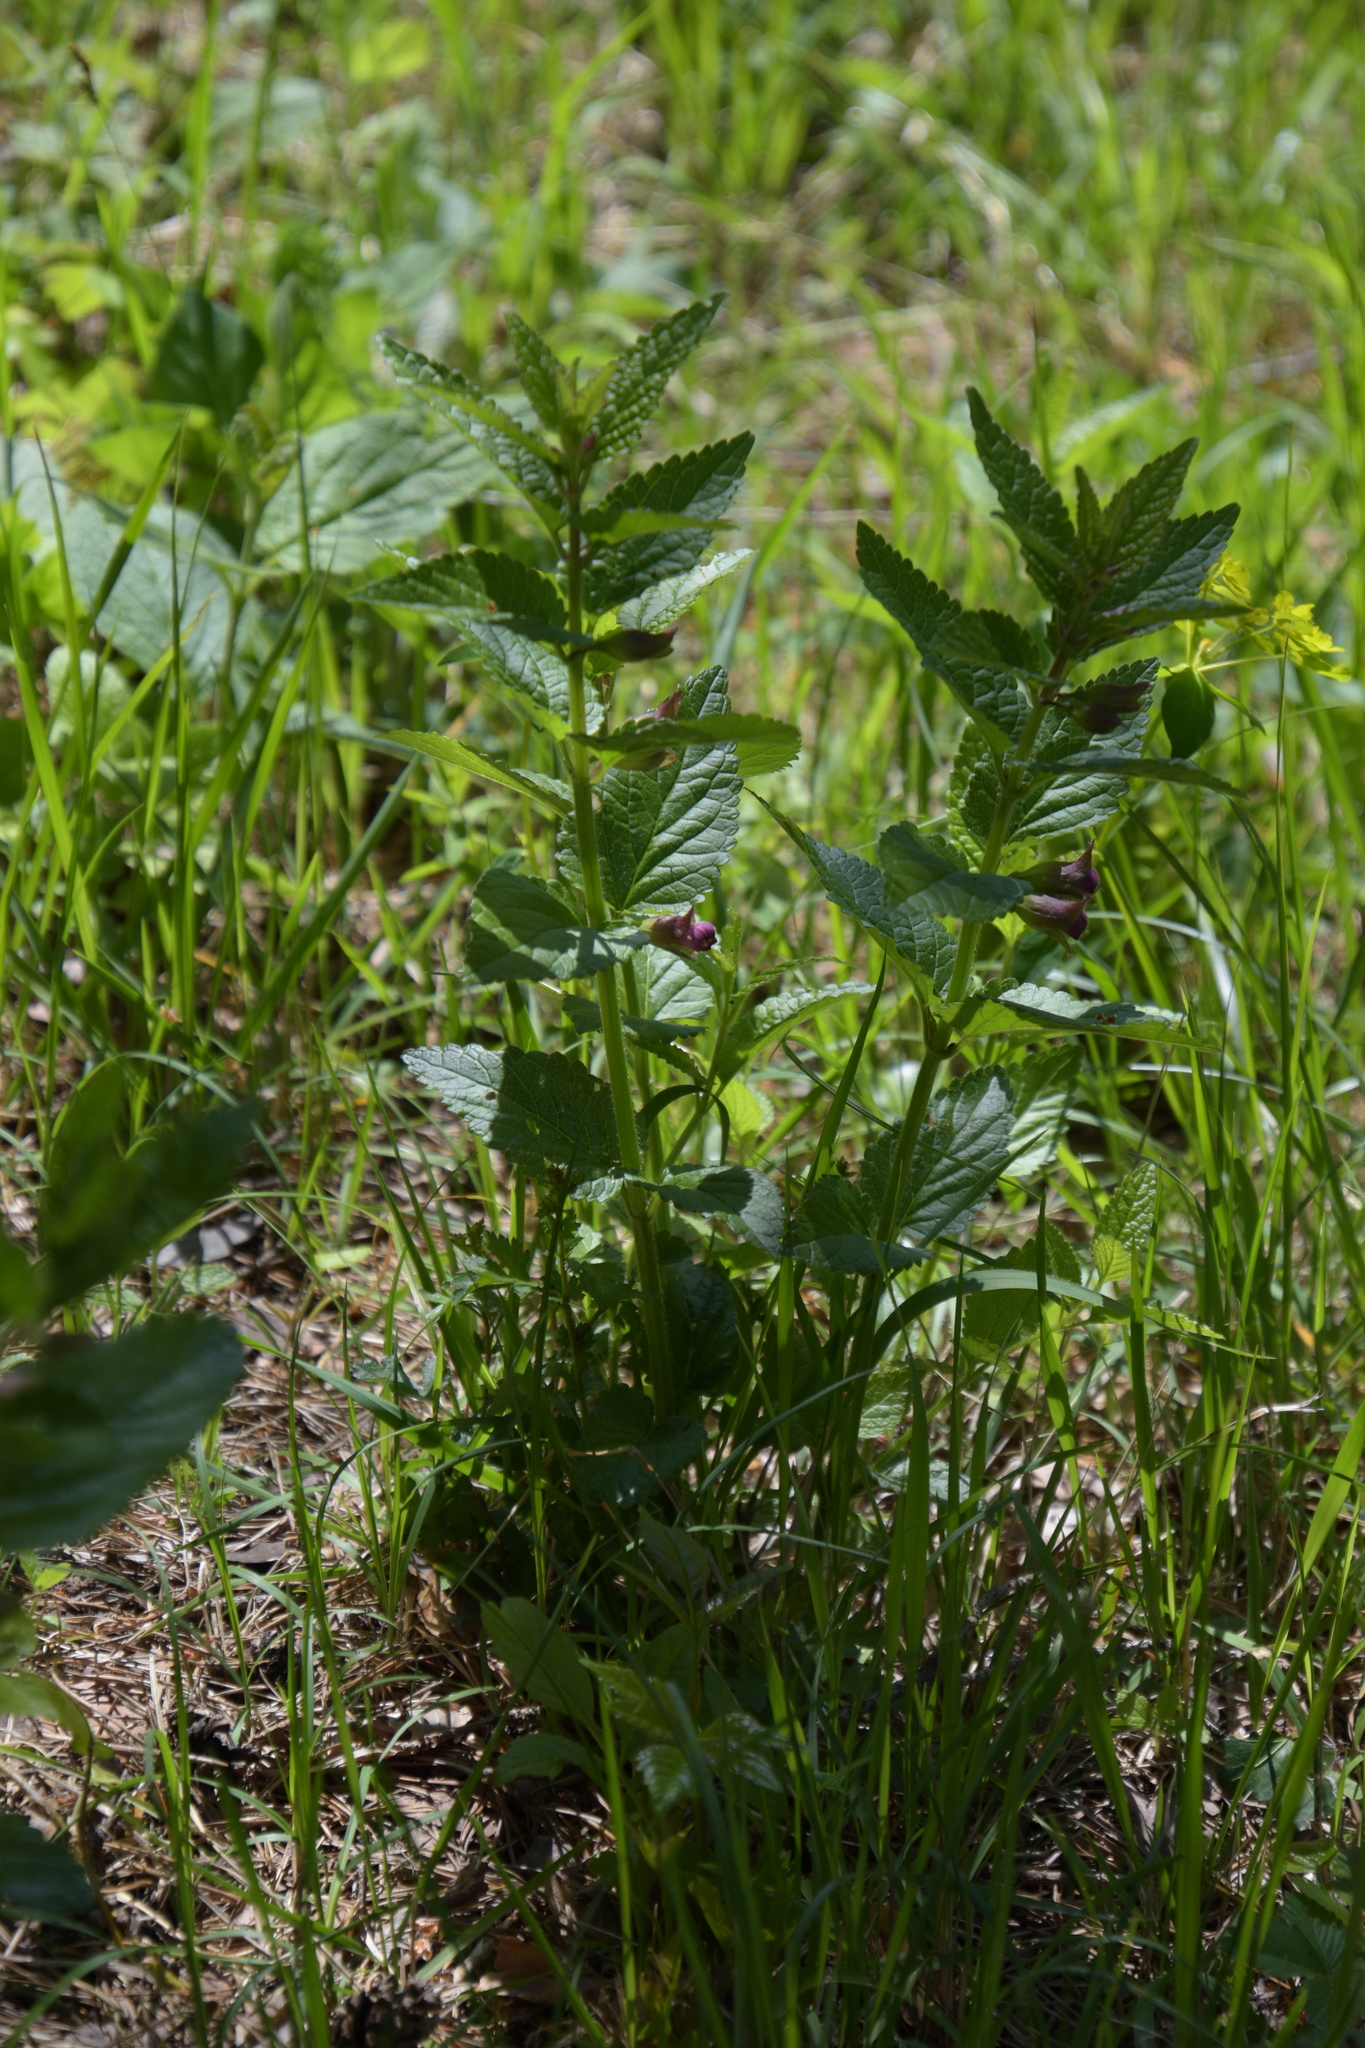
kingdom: Plantae
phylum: Tracheophyta
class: Magnoliopsida
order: Lamiales
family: Lamiaceae
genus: Melittis
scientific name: Melittis melissophyllum
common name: Bastard balm
